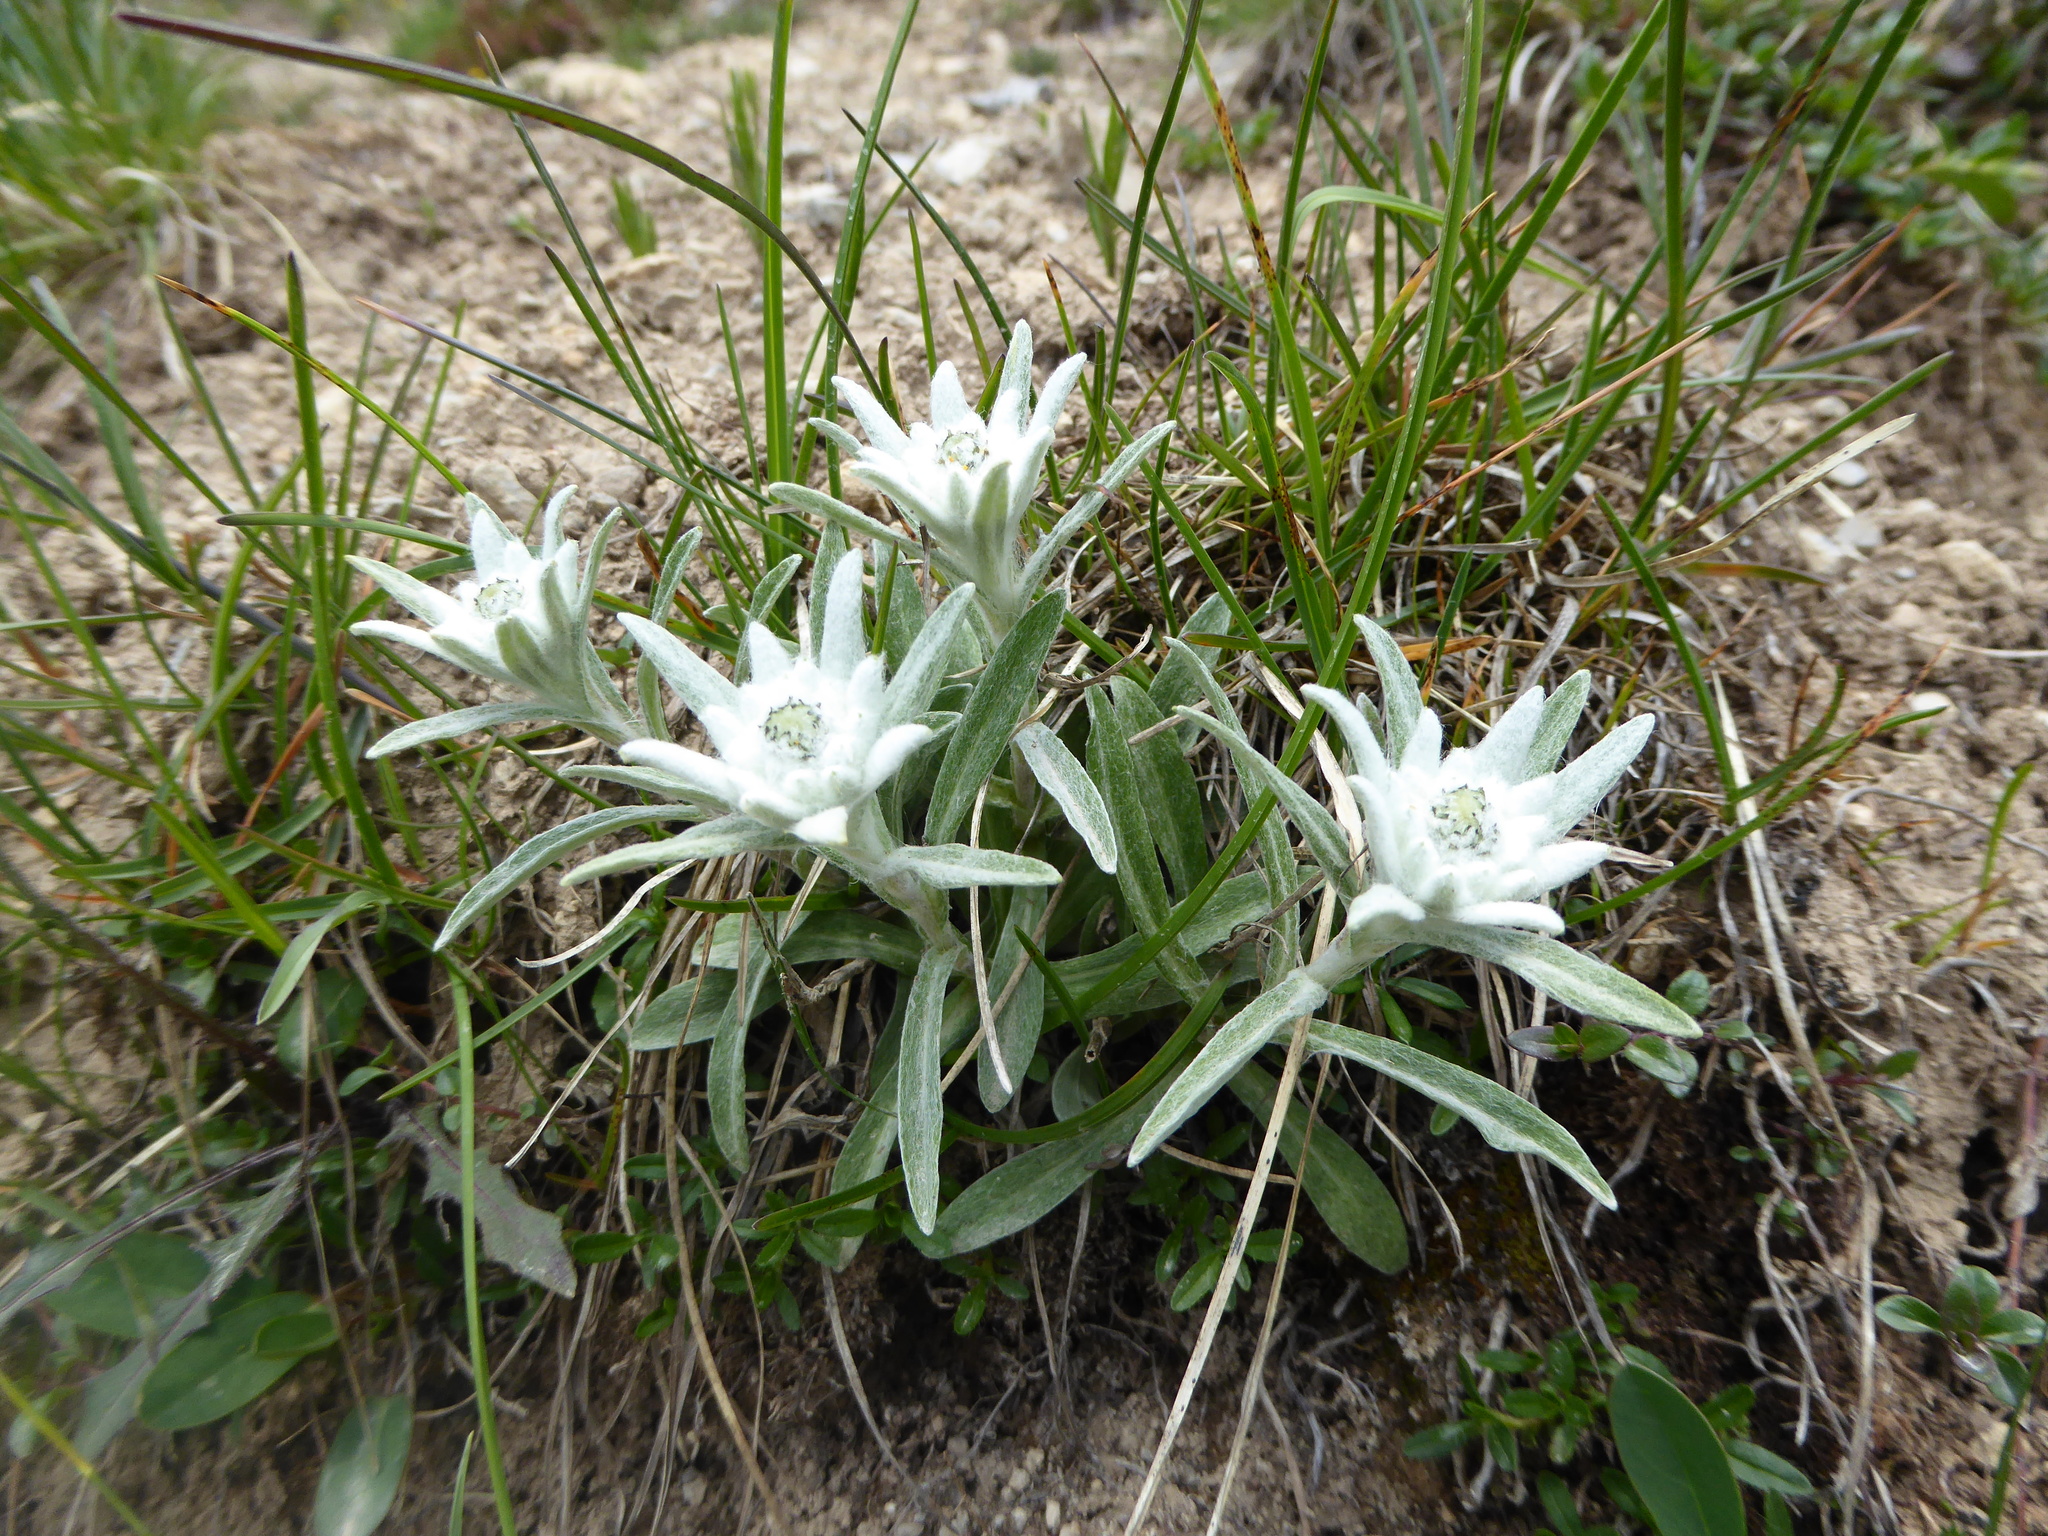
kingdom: Plantae
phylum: Tracheophyta
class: Magnoliopsida
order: Asterales
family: Asteraceae
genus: Leontopodium
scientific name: Leontopodium nivale
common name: Edelweiss
